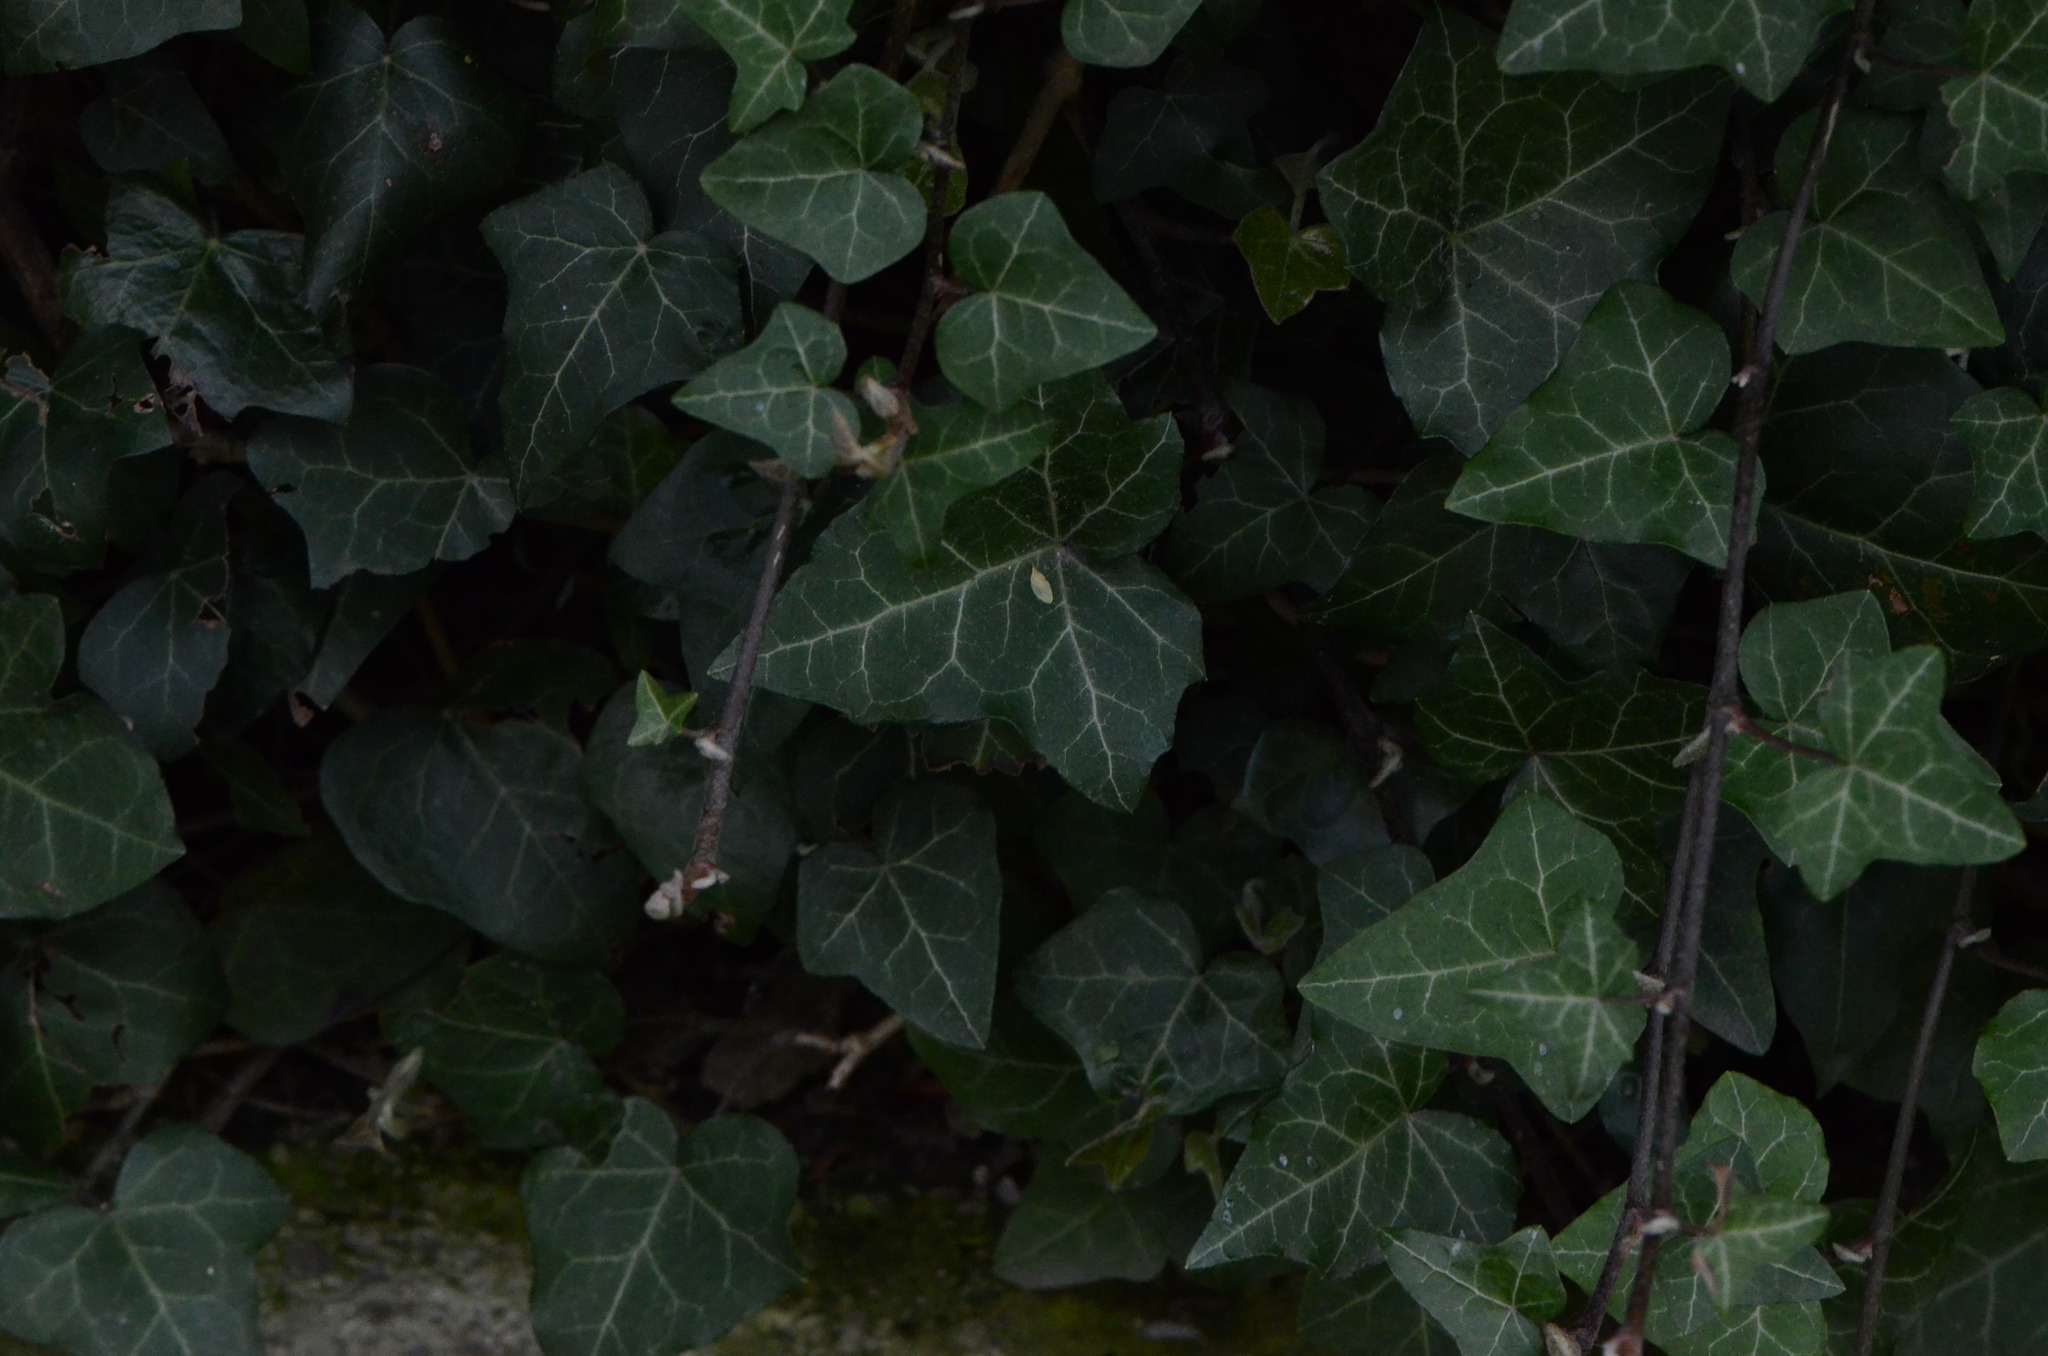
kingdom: Plantae
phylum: Tracheophyta
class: Magnoliopsida
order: Apiales
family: Araliaceae
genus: Hedera
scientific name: Hedera helix
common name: Ivy
